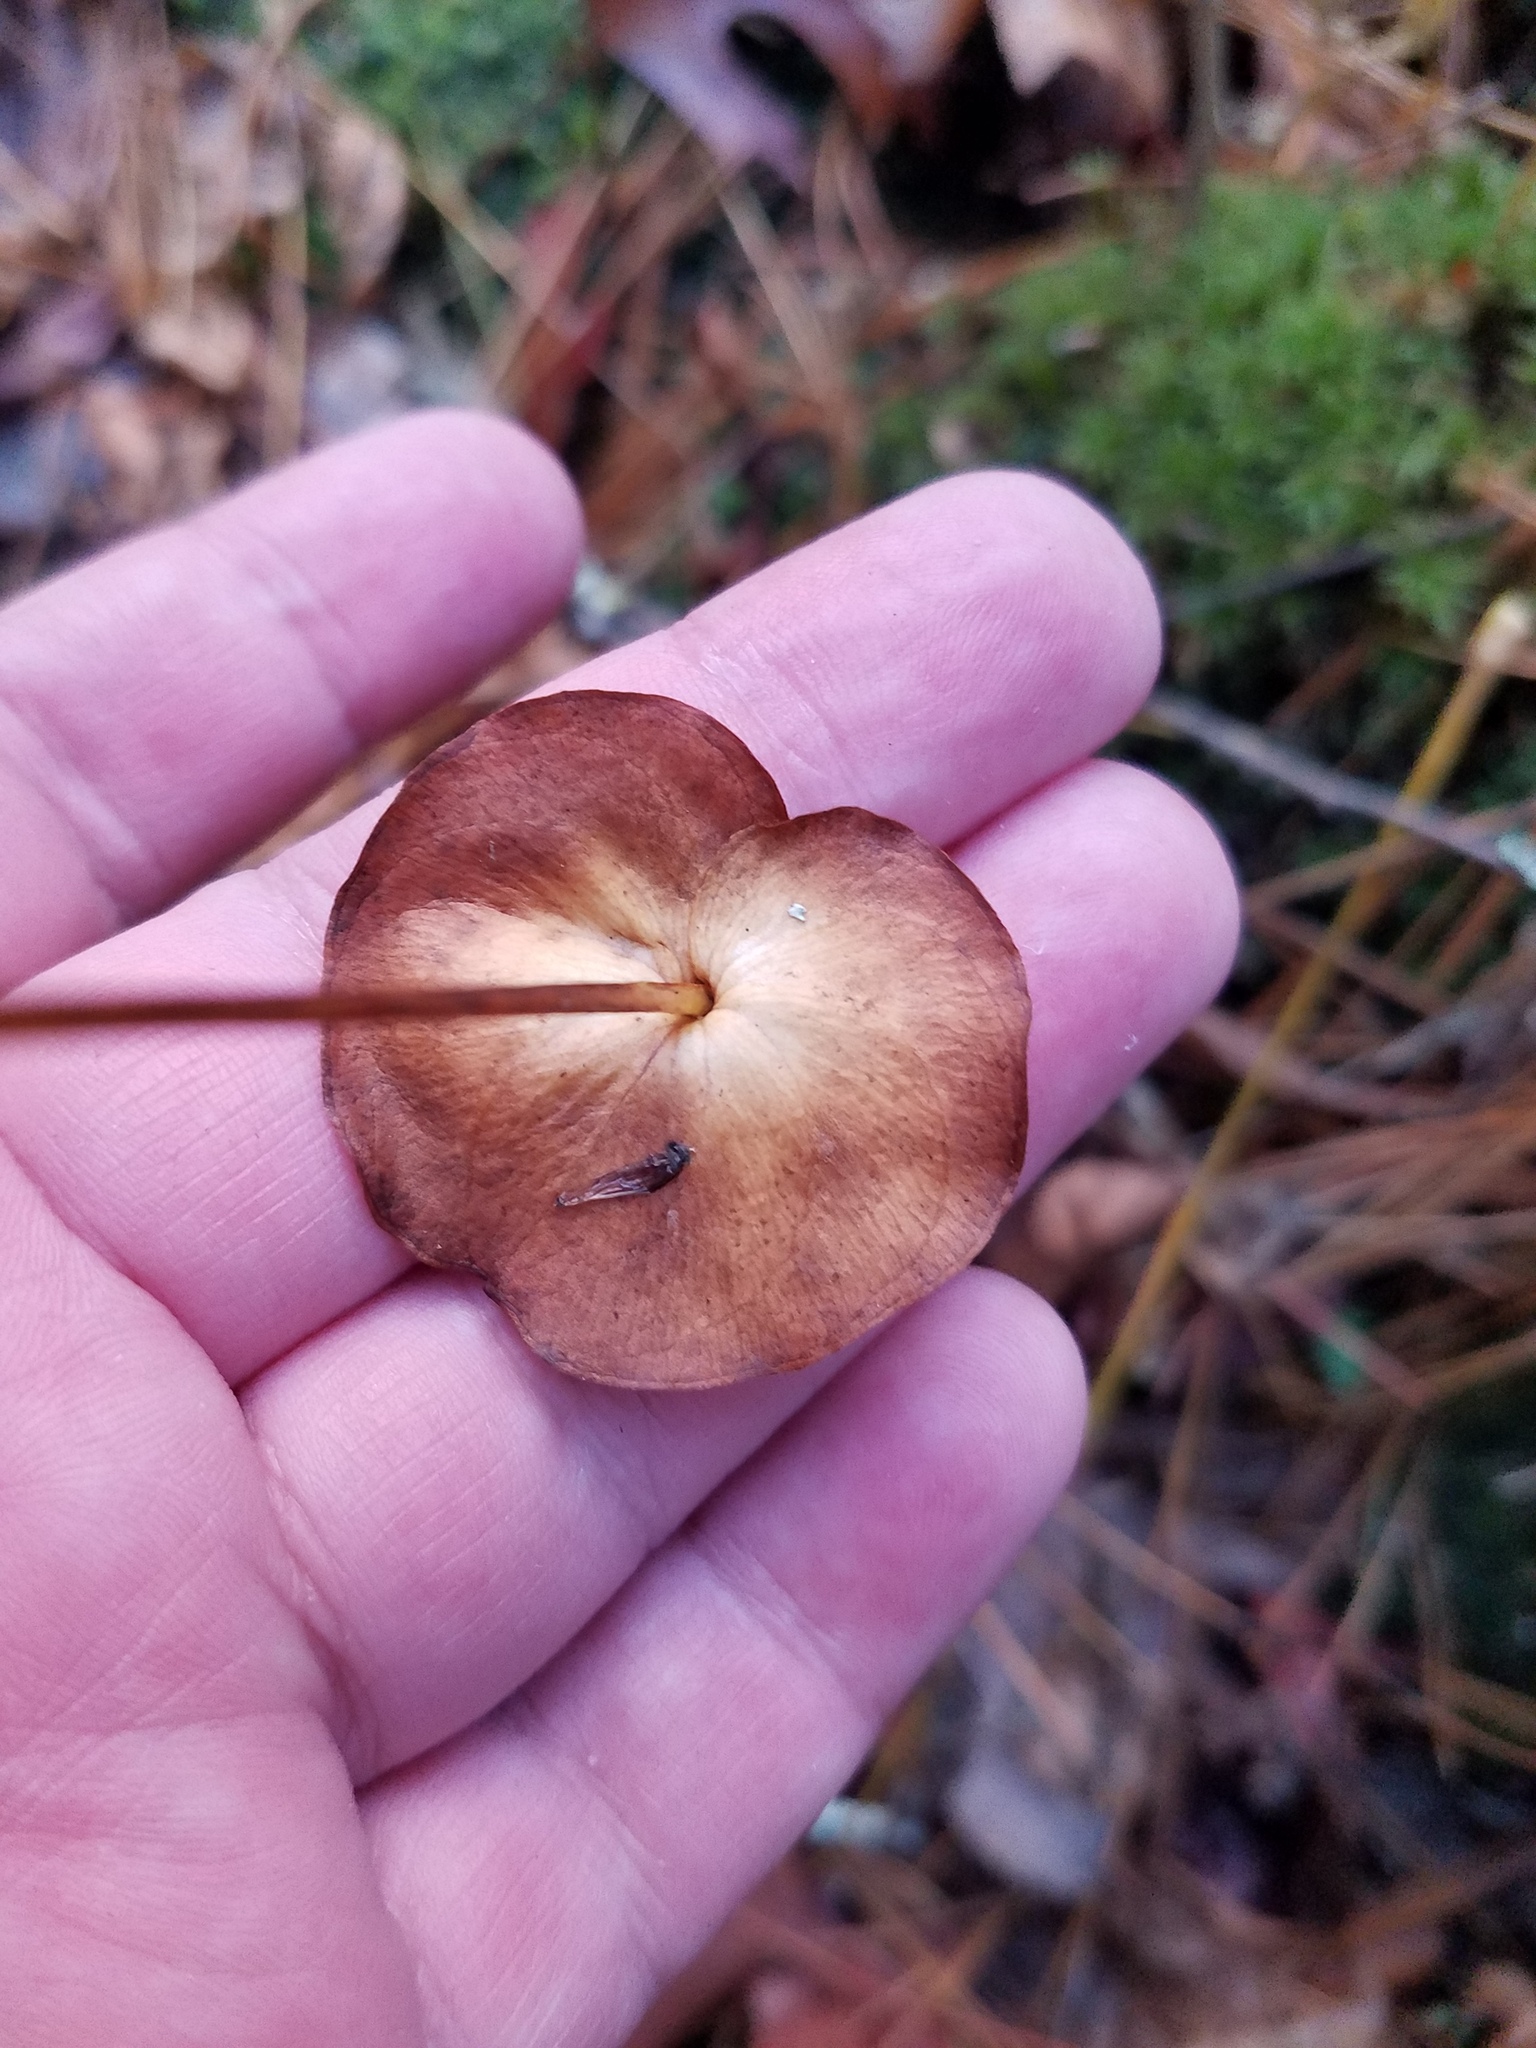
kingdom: Plantae
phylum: Tracheophyta
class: Magnoliopsida
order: Celastrales
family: Parnassiaceae
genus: Parnassia
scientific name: Parnassia asarifolia
